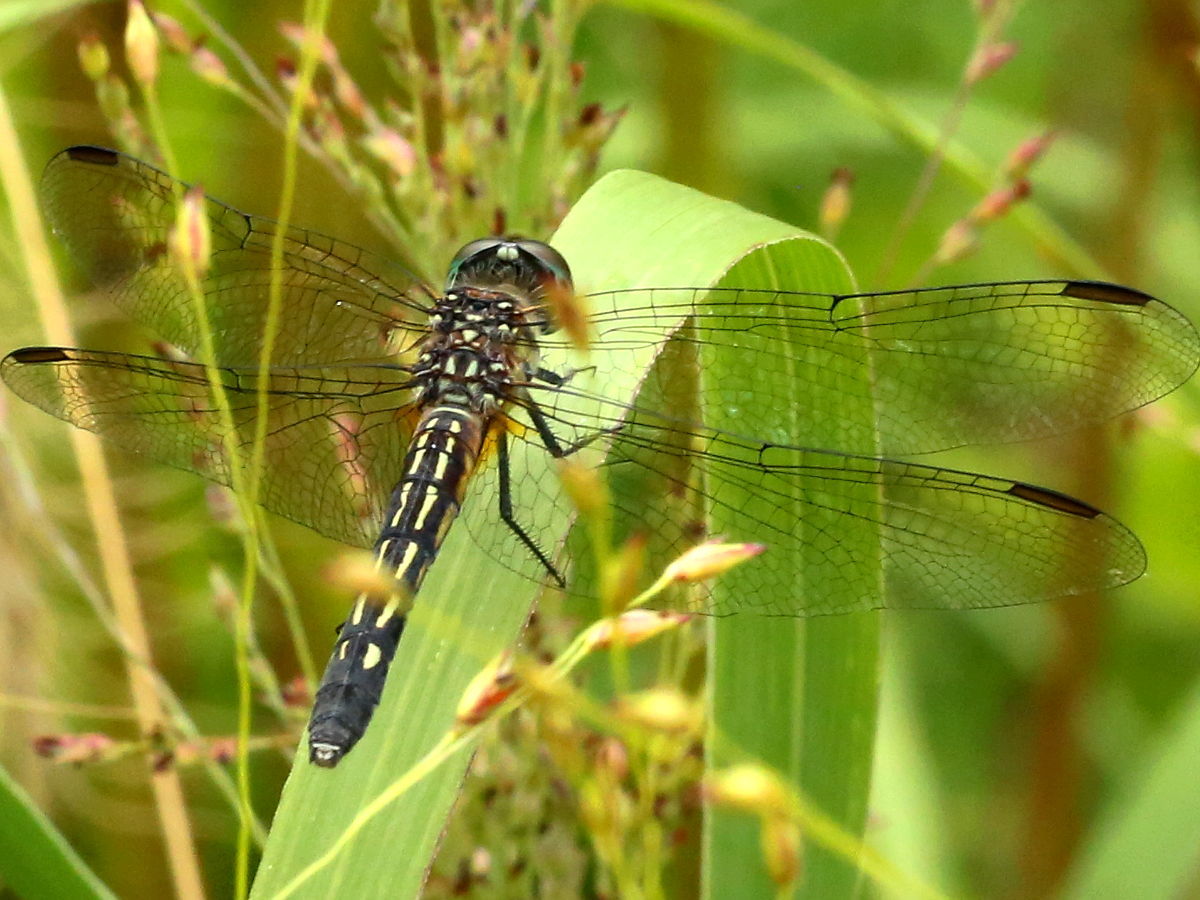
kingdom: Animalia
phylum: Arthropoda
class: Insecta
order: Odonata
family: Libellulidae
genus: Pachydiplax
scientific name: Pachydiplax longipennis
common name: Blue dasher
